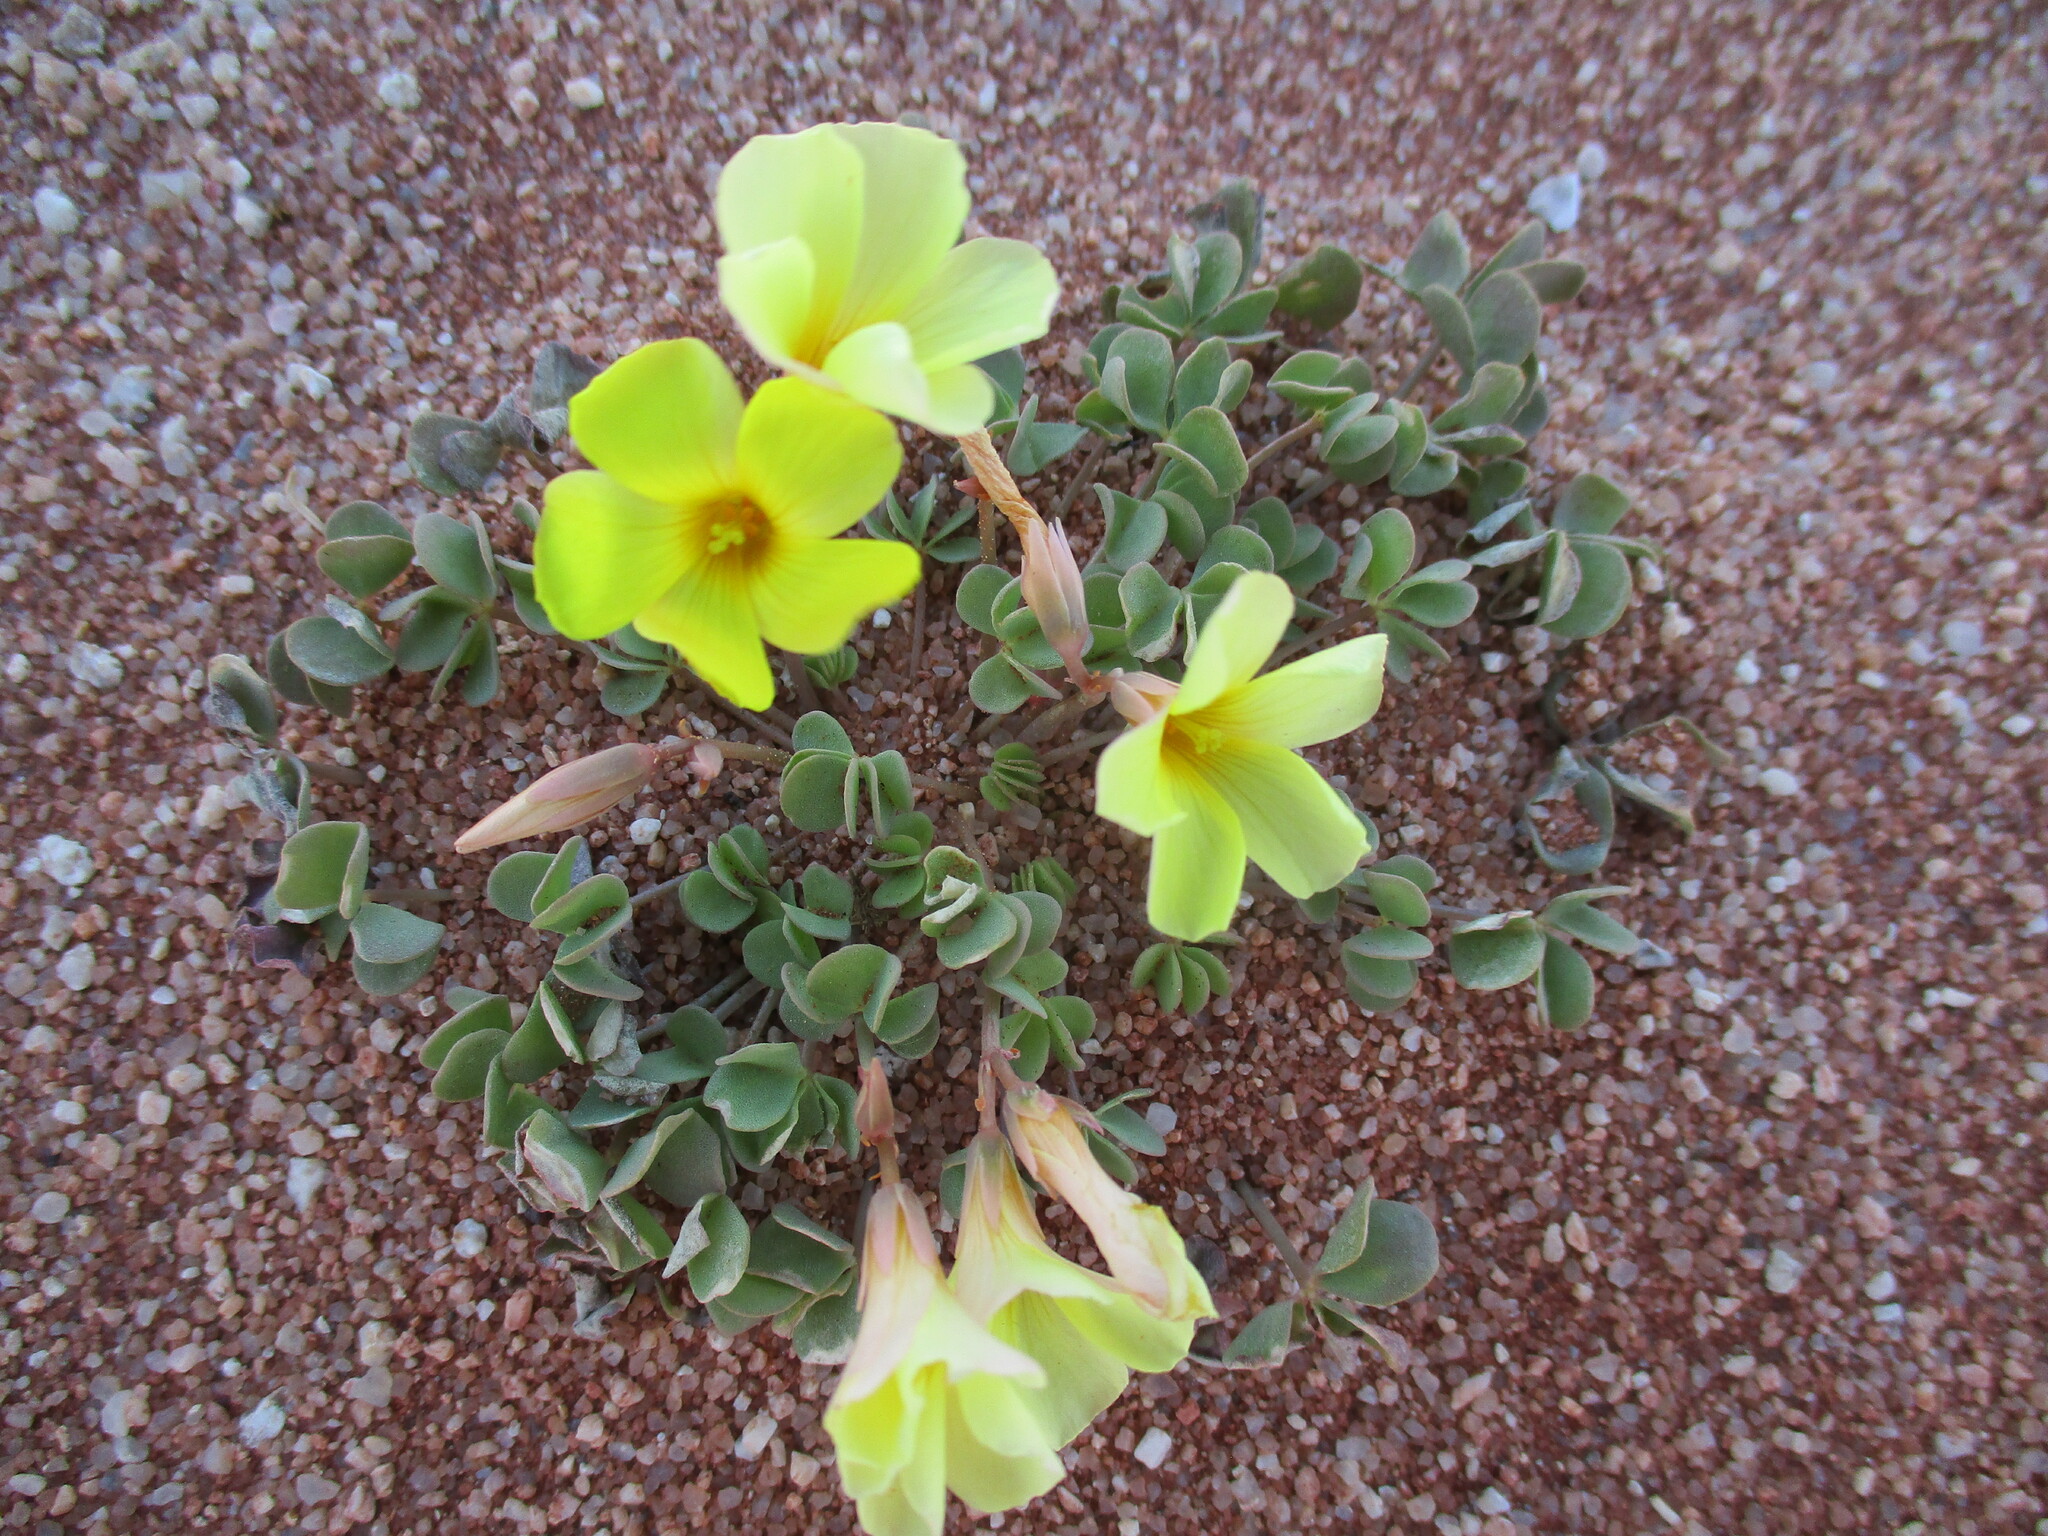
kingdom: Plantae
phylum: Tracheophyta
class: Magnoliopsida
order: Oxalidales
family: Oxalidaceae
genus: Oxalis
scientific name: Oxalis luederitzii
